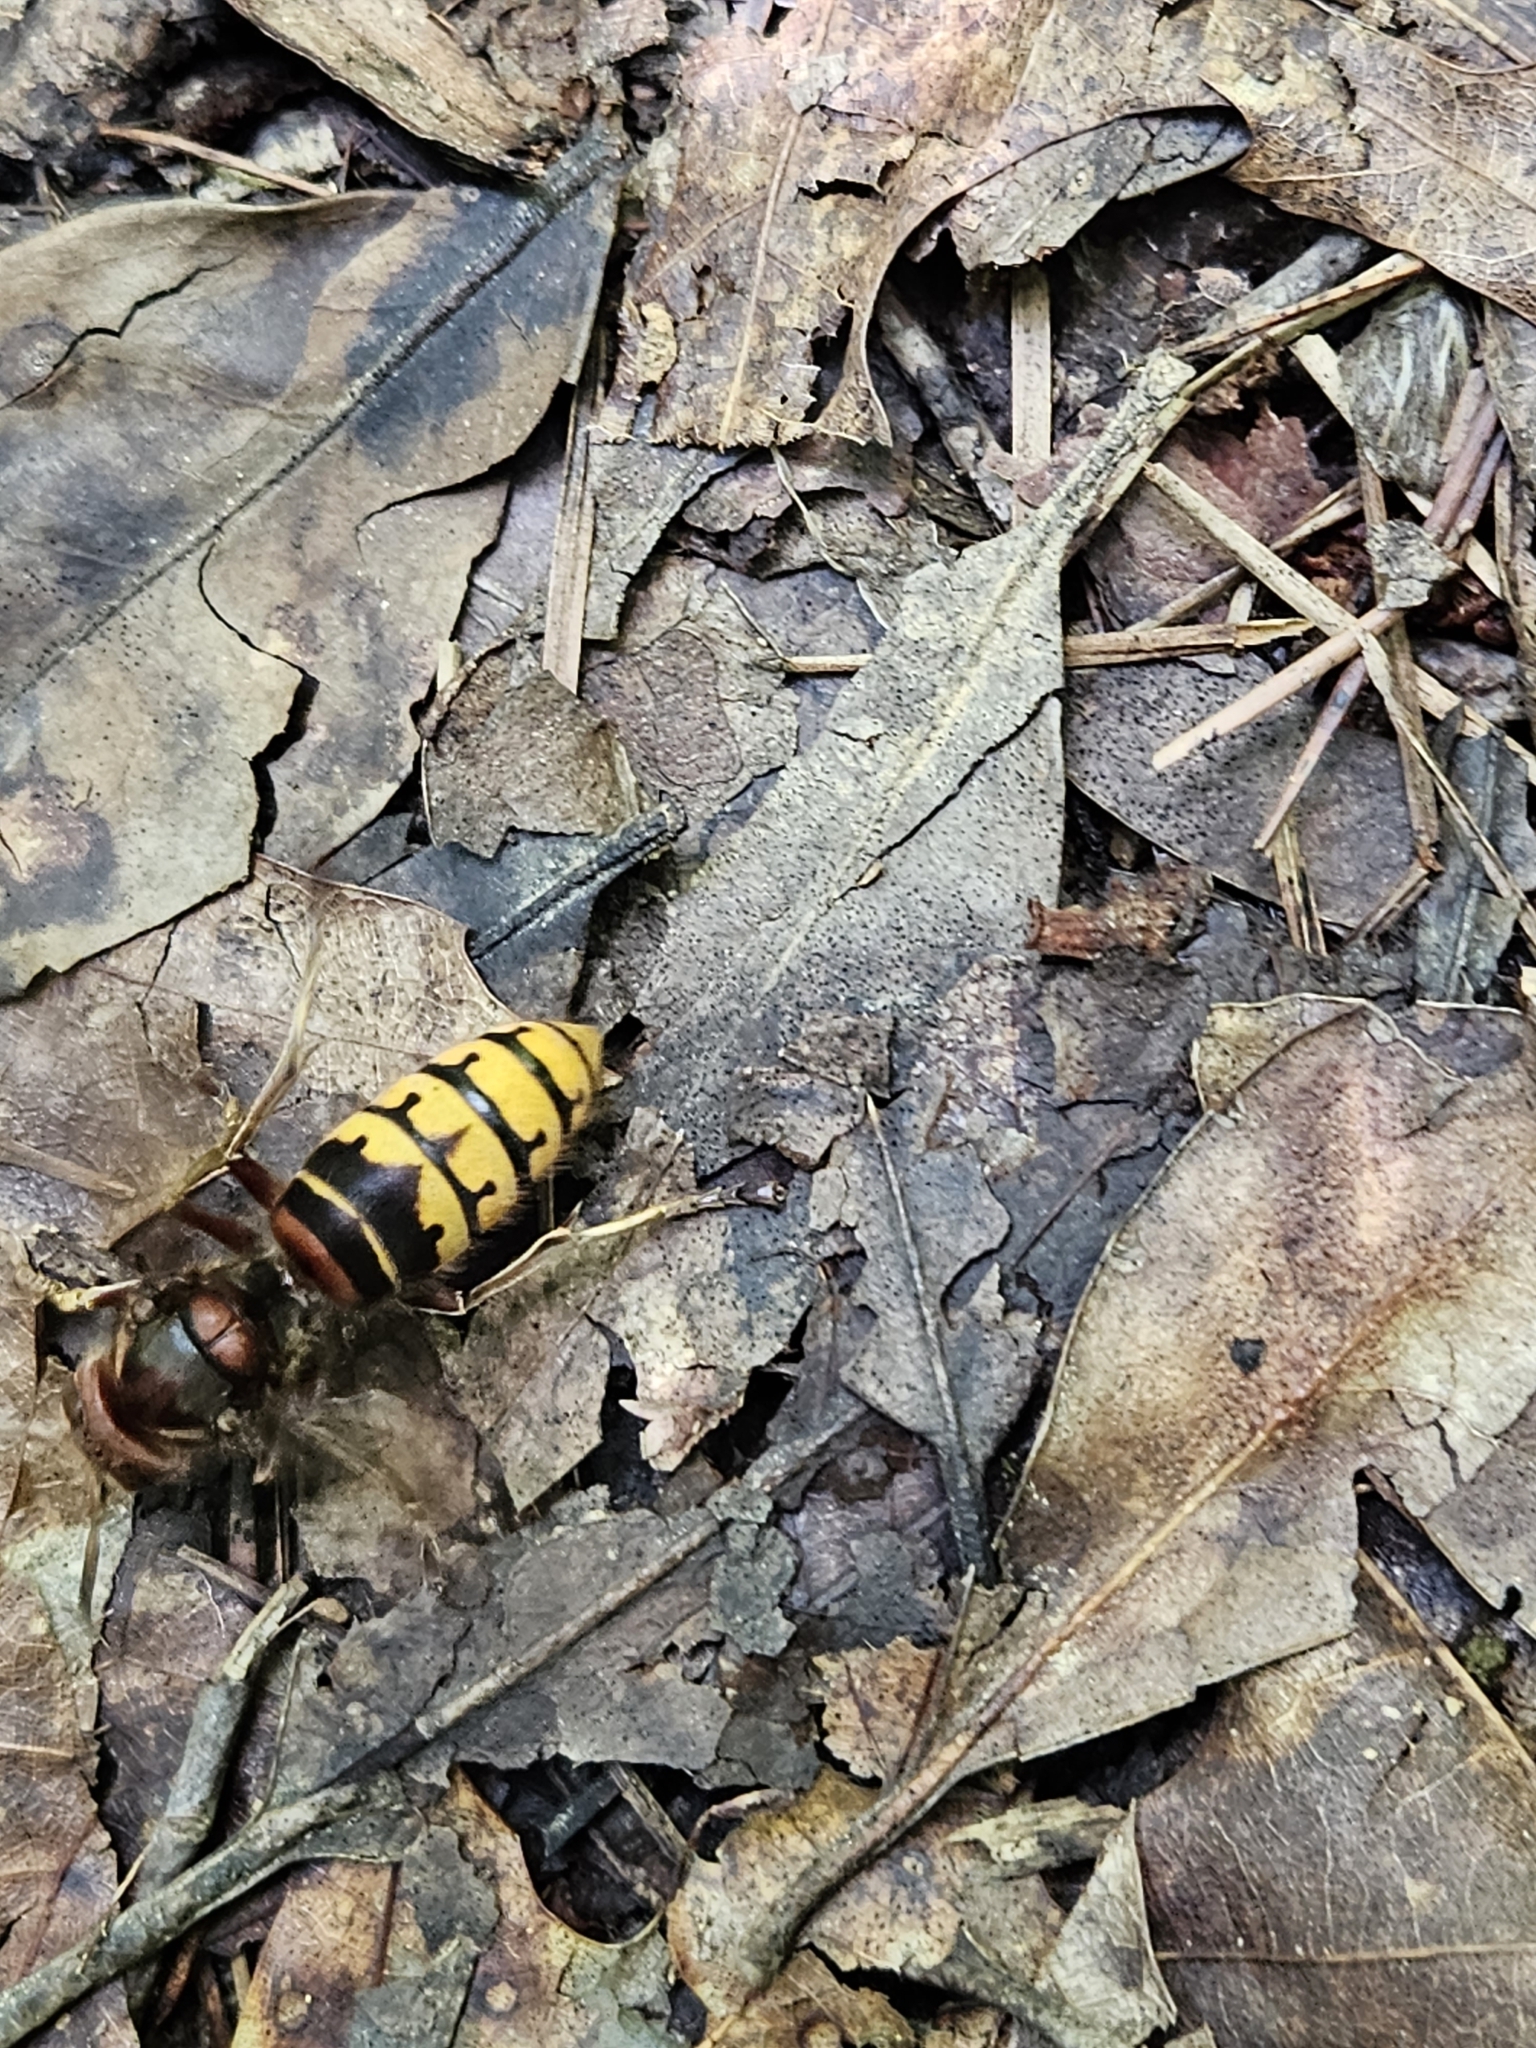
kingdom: Animalia
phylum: Arthropoda
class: Insecta
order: Hymenoptera
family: Vespidae
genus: Vespa
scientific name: Vespa crabro
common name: Hornet
